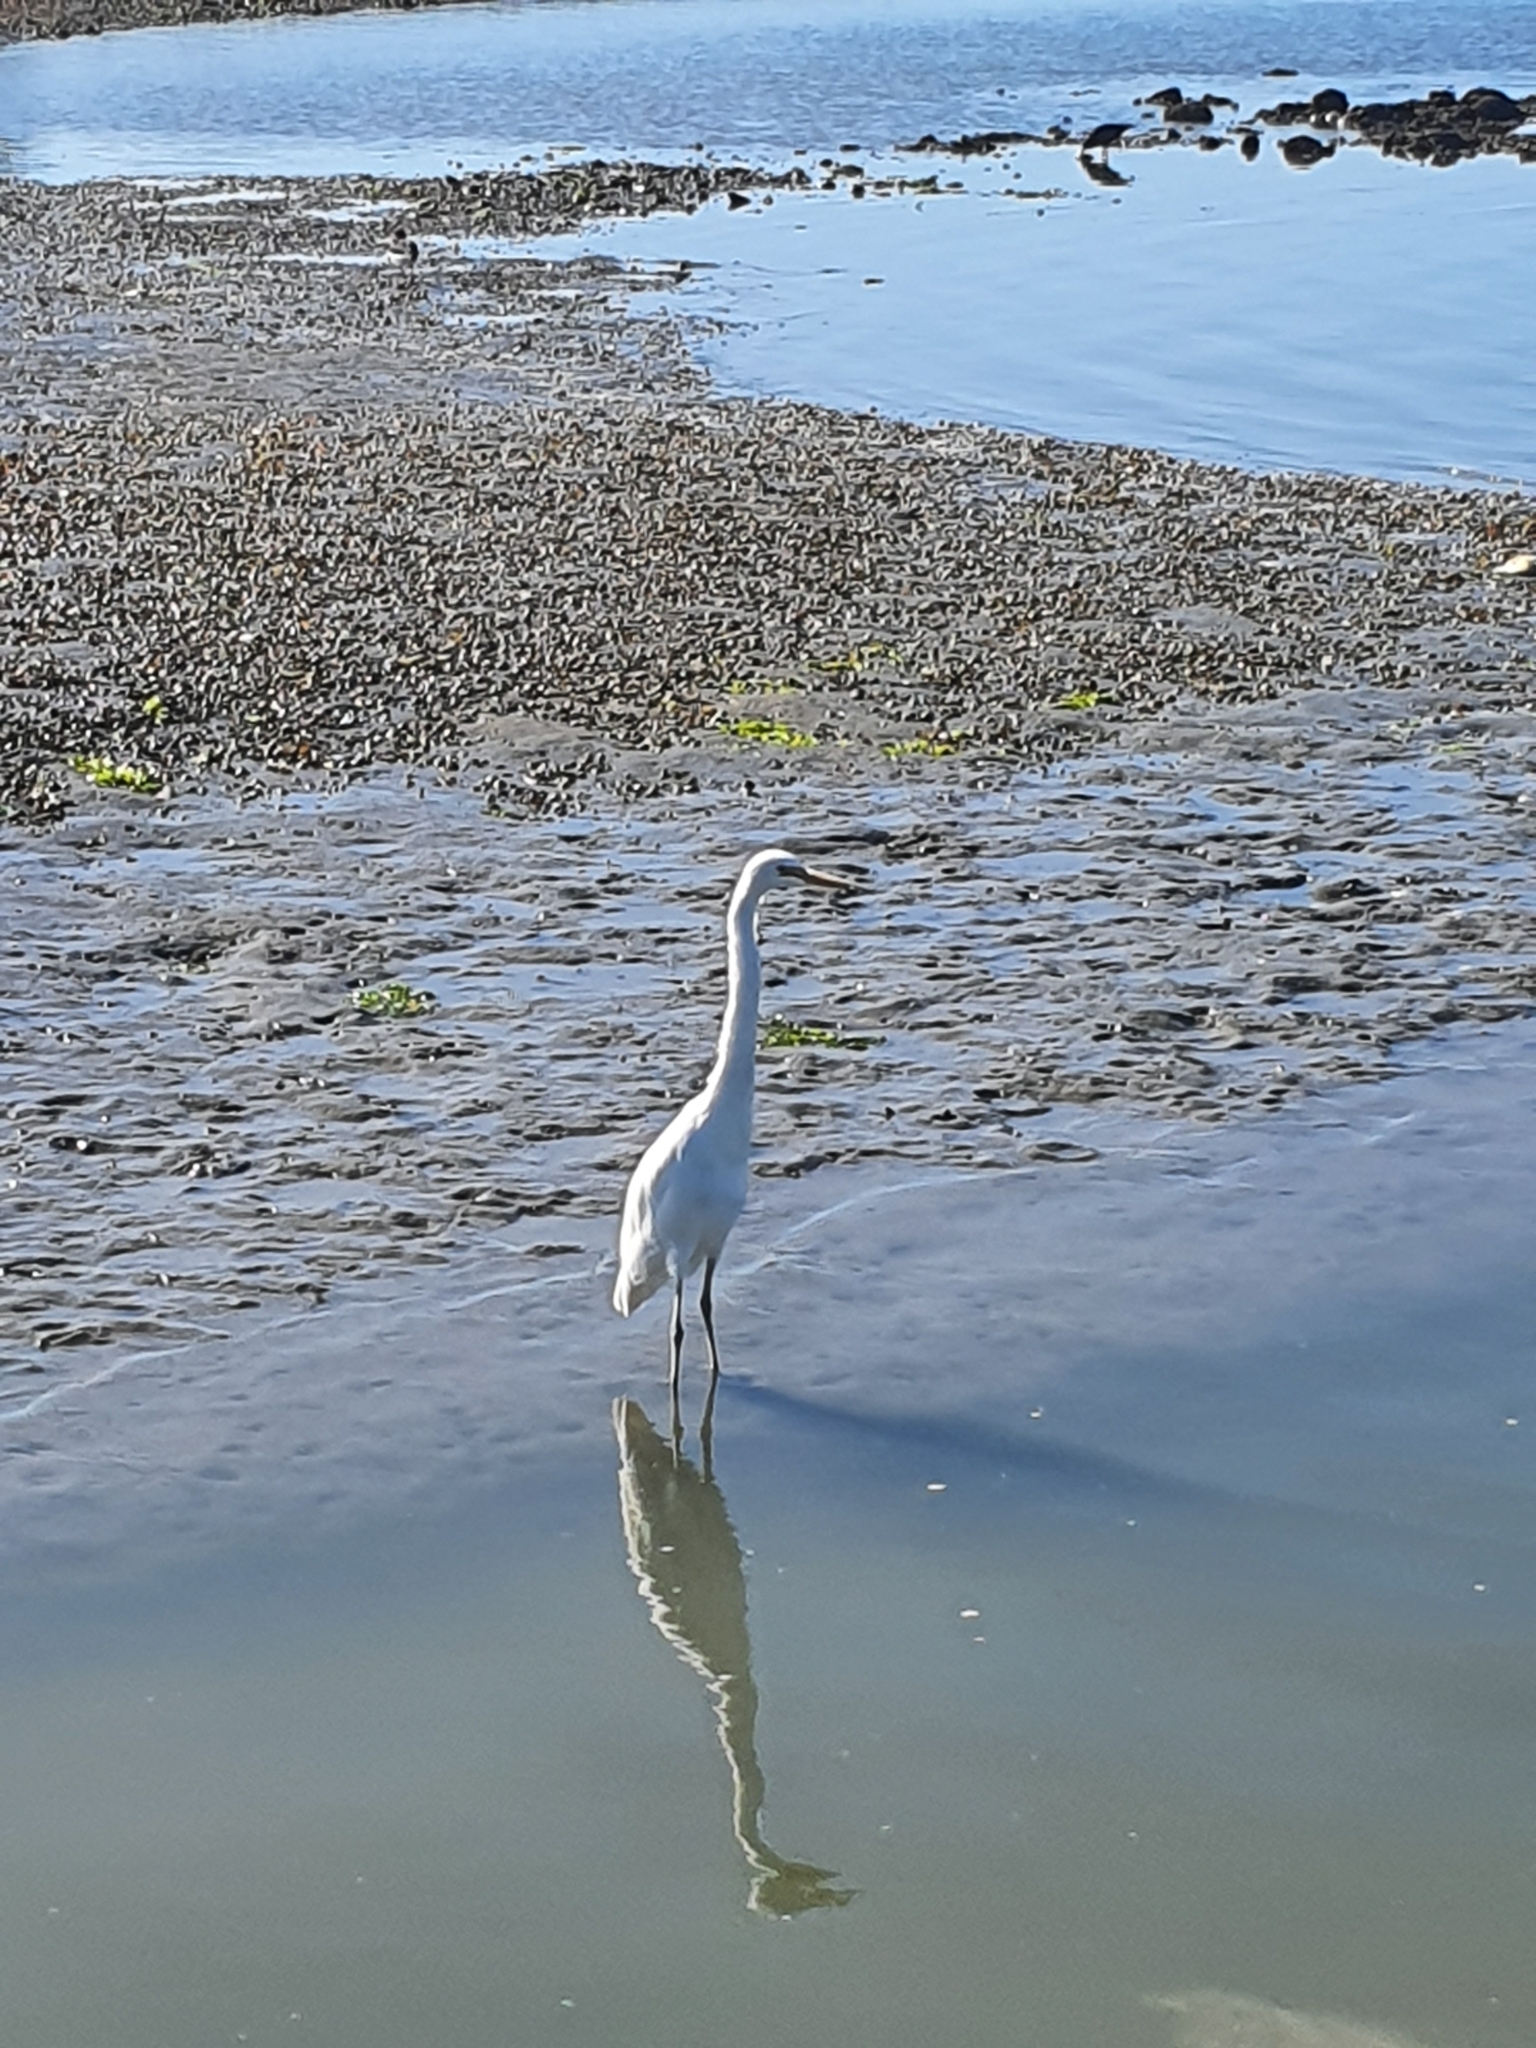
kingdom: Animalia
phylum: Chordata
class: Aves
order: Pelecaniformes
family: Ardeidae
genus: Ardea
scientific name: Ardea modesta
